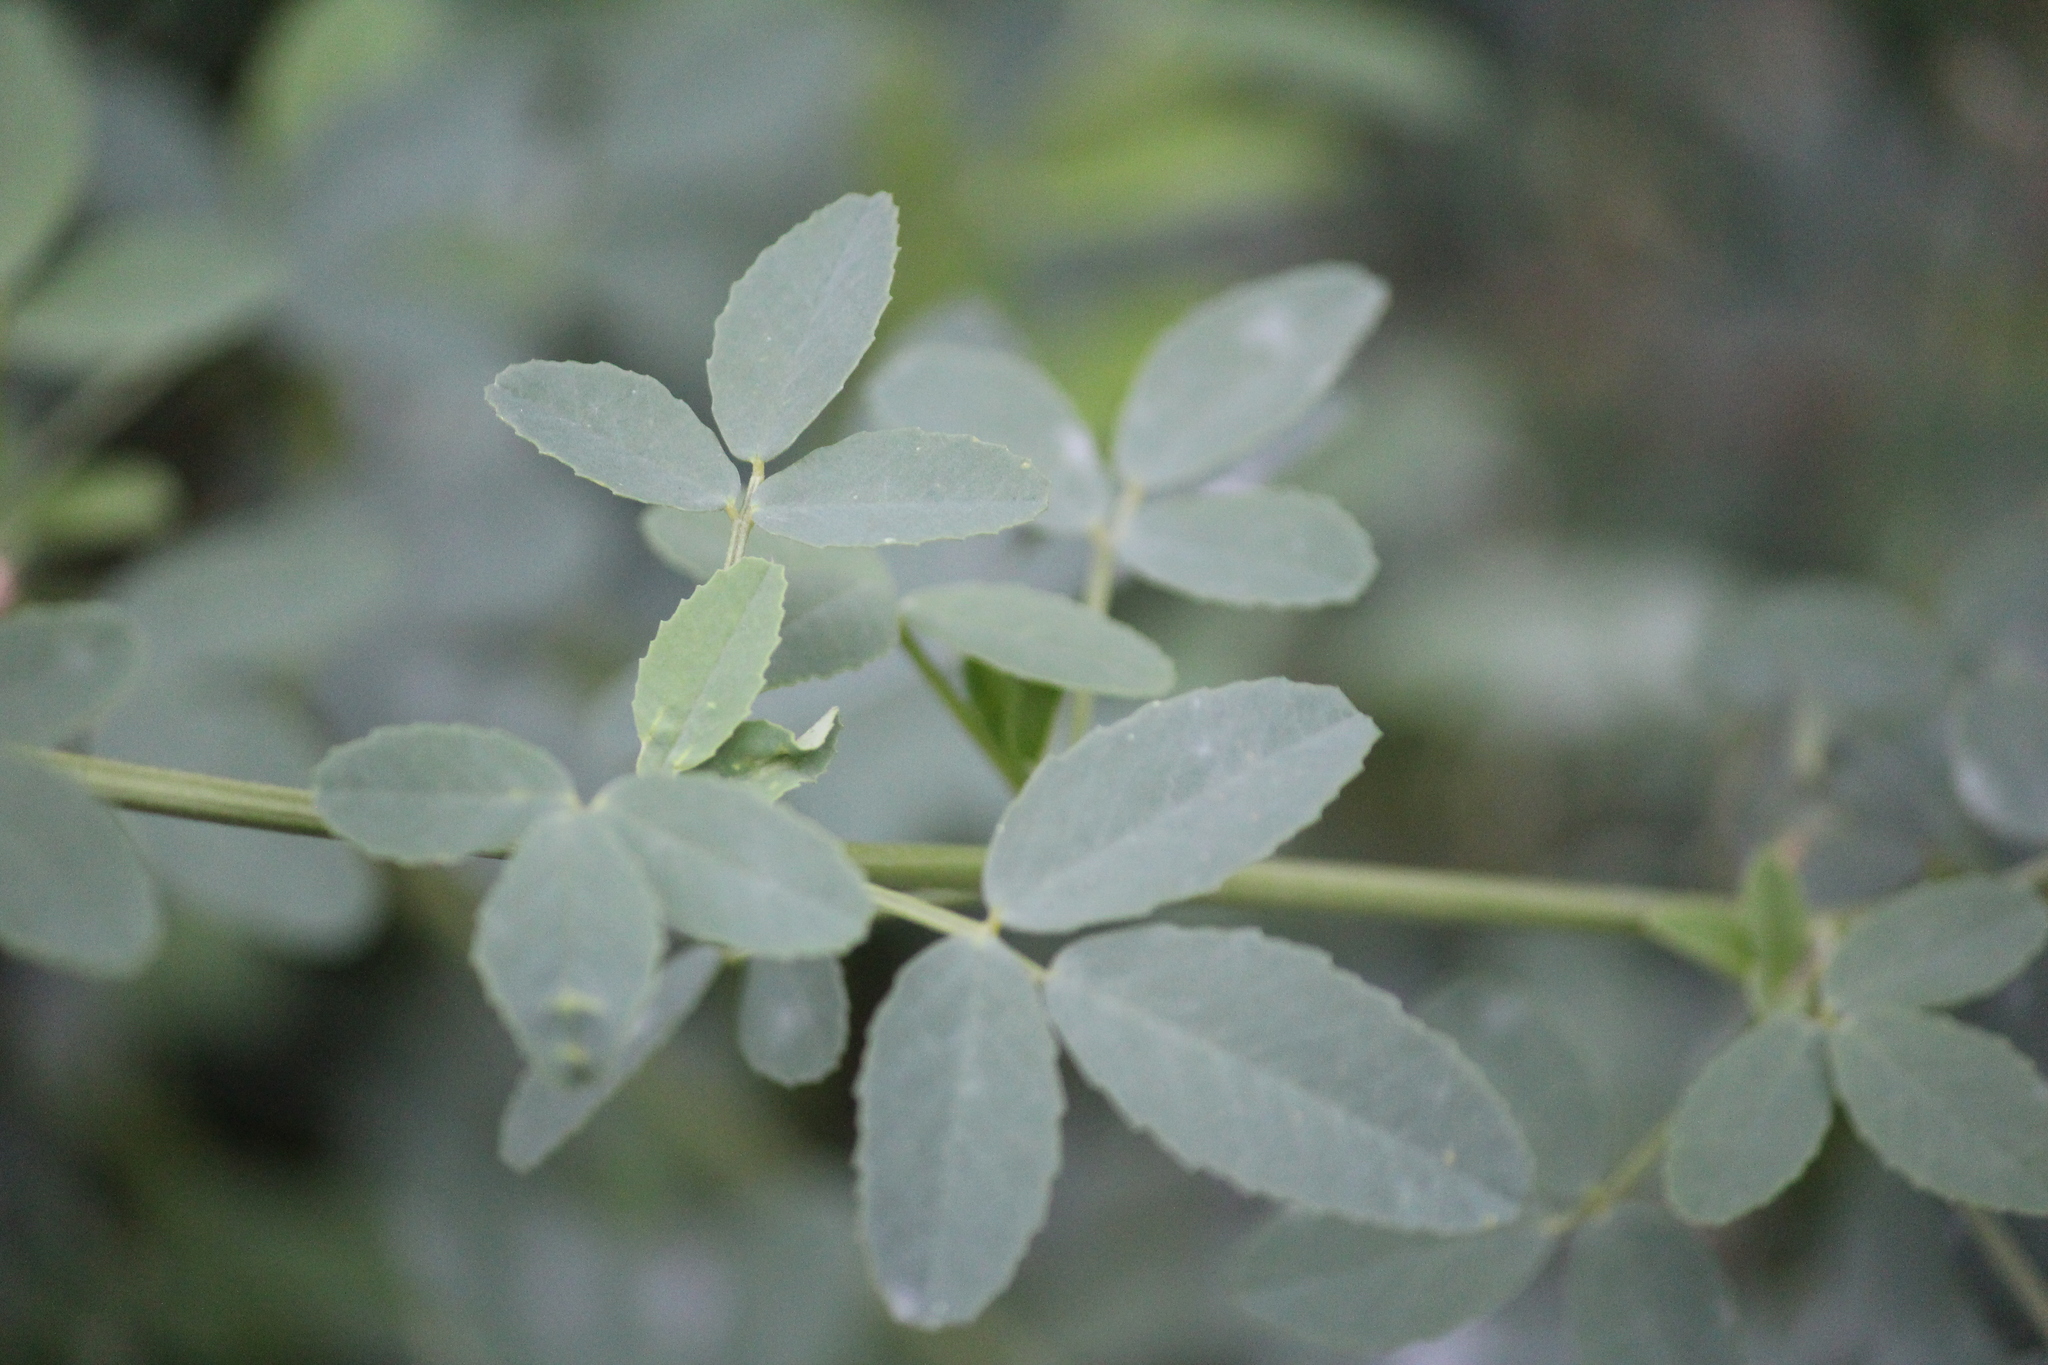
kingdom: Plantae
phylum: Tracheophyta
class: Magnoliopsida
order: Fabales
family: Fabaceae
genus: Melilotus
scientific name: Melilotus officinalis
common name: Sweetclover
